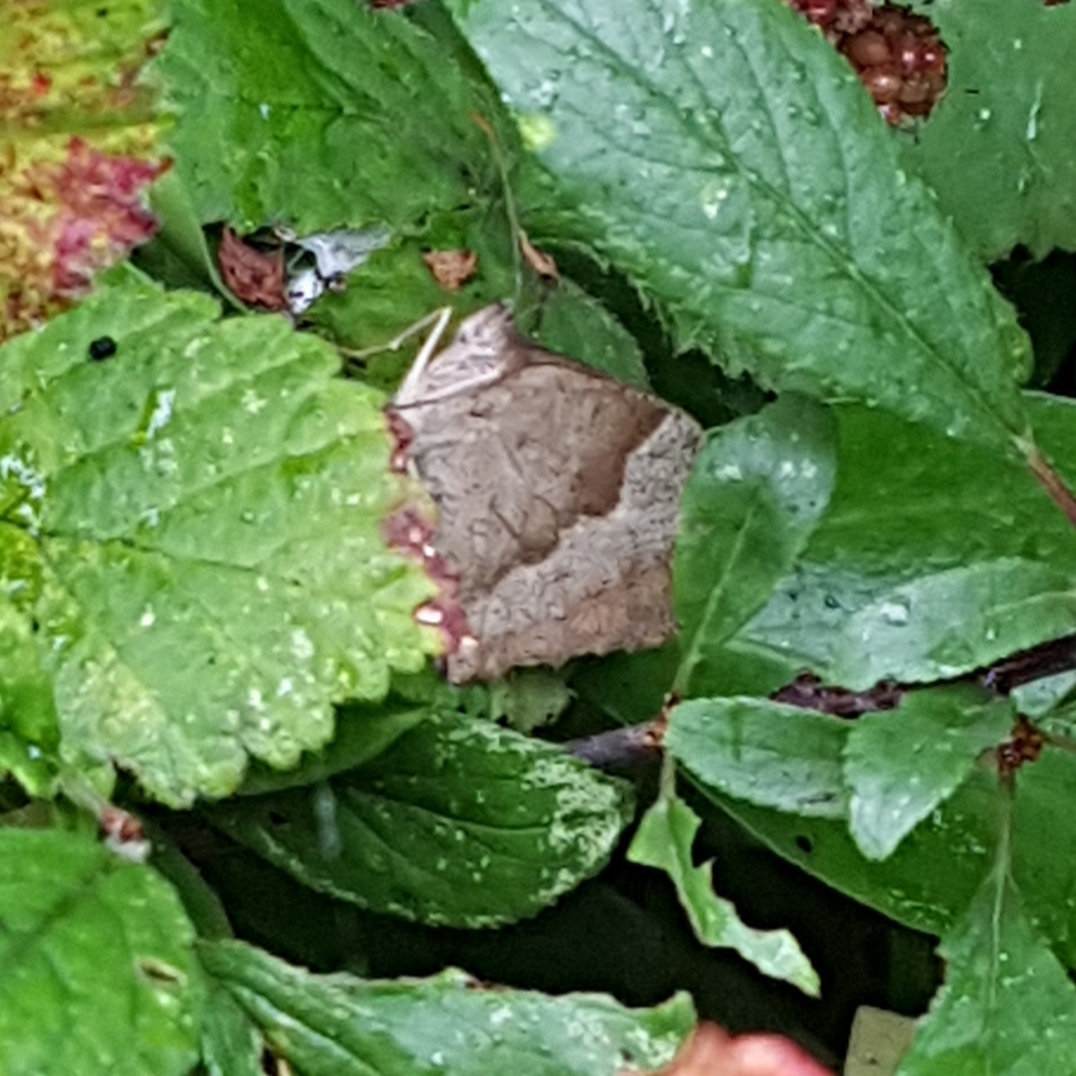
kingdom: Animalia
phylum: Arthropoda
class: Insecta
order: Lepidoptera
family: Nymphalidae
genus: Maniola
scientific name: Maniola jurtina
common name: Meadow brown
